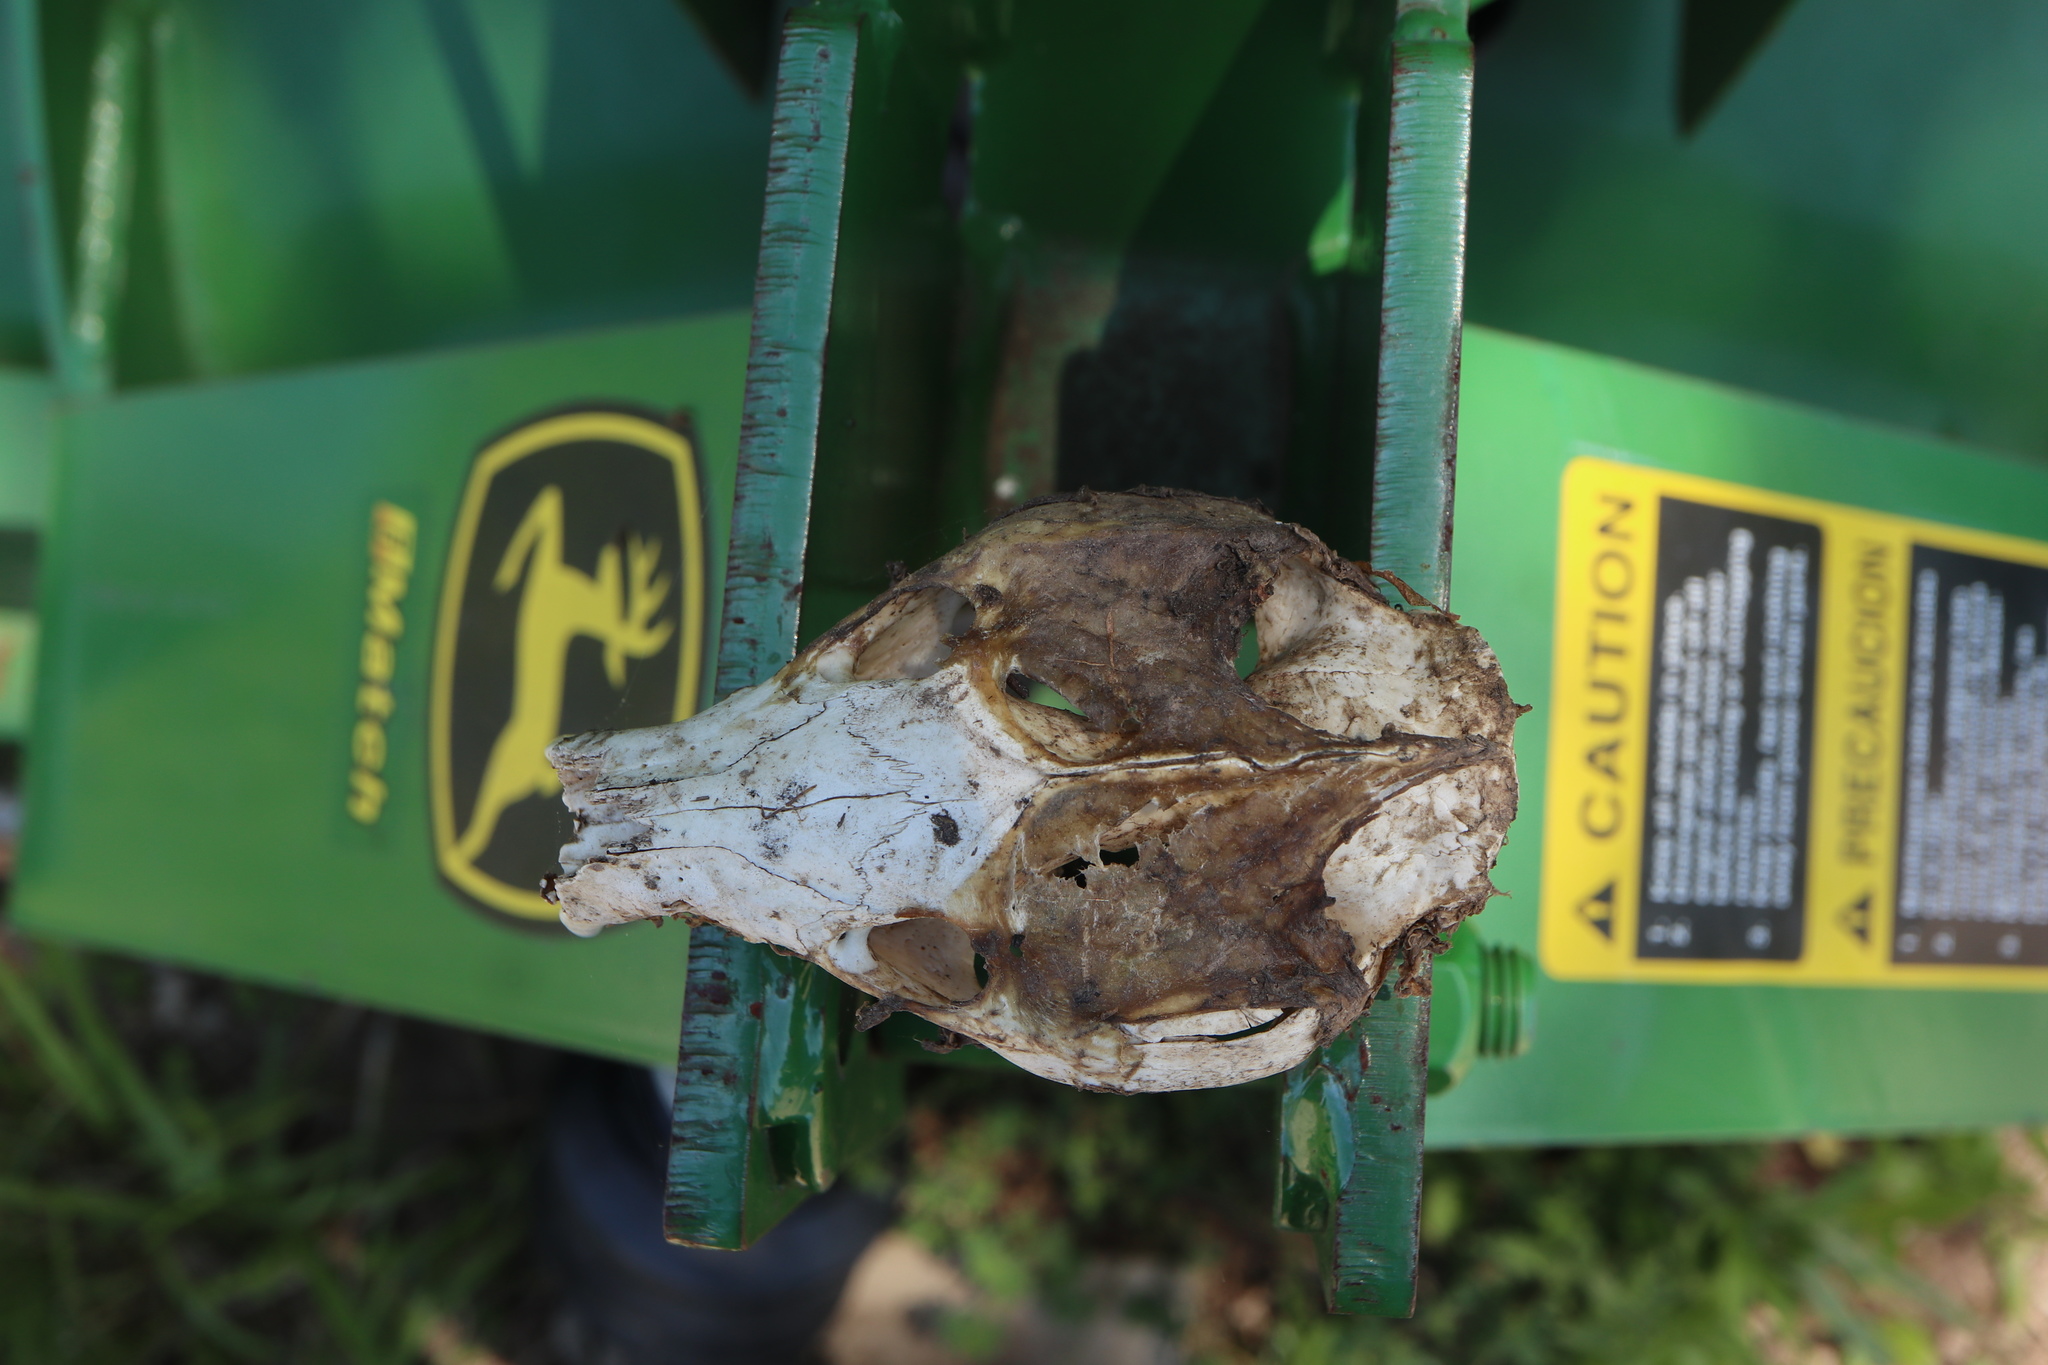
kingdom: Animalia
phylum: Chordata
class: Mammalia
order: Didelphimorphia
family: Didelphidae
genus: Didelphis
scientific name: Didelphis virginiana
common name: Virginia opossum
